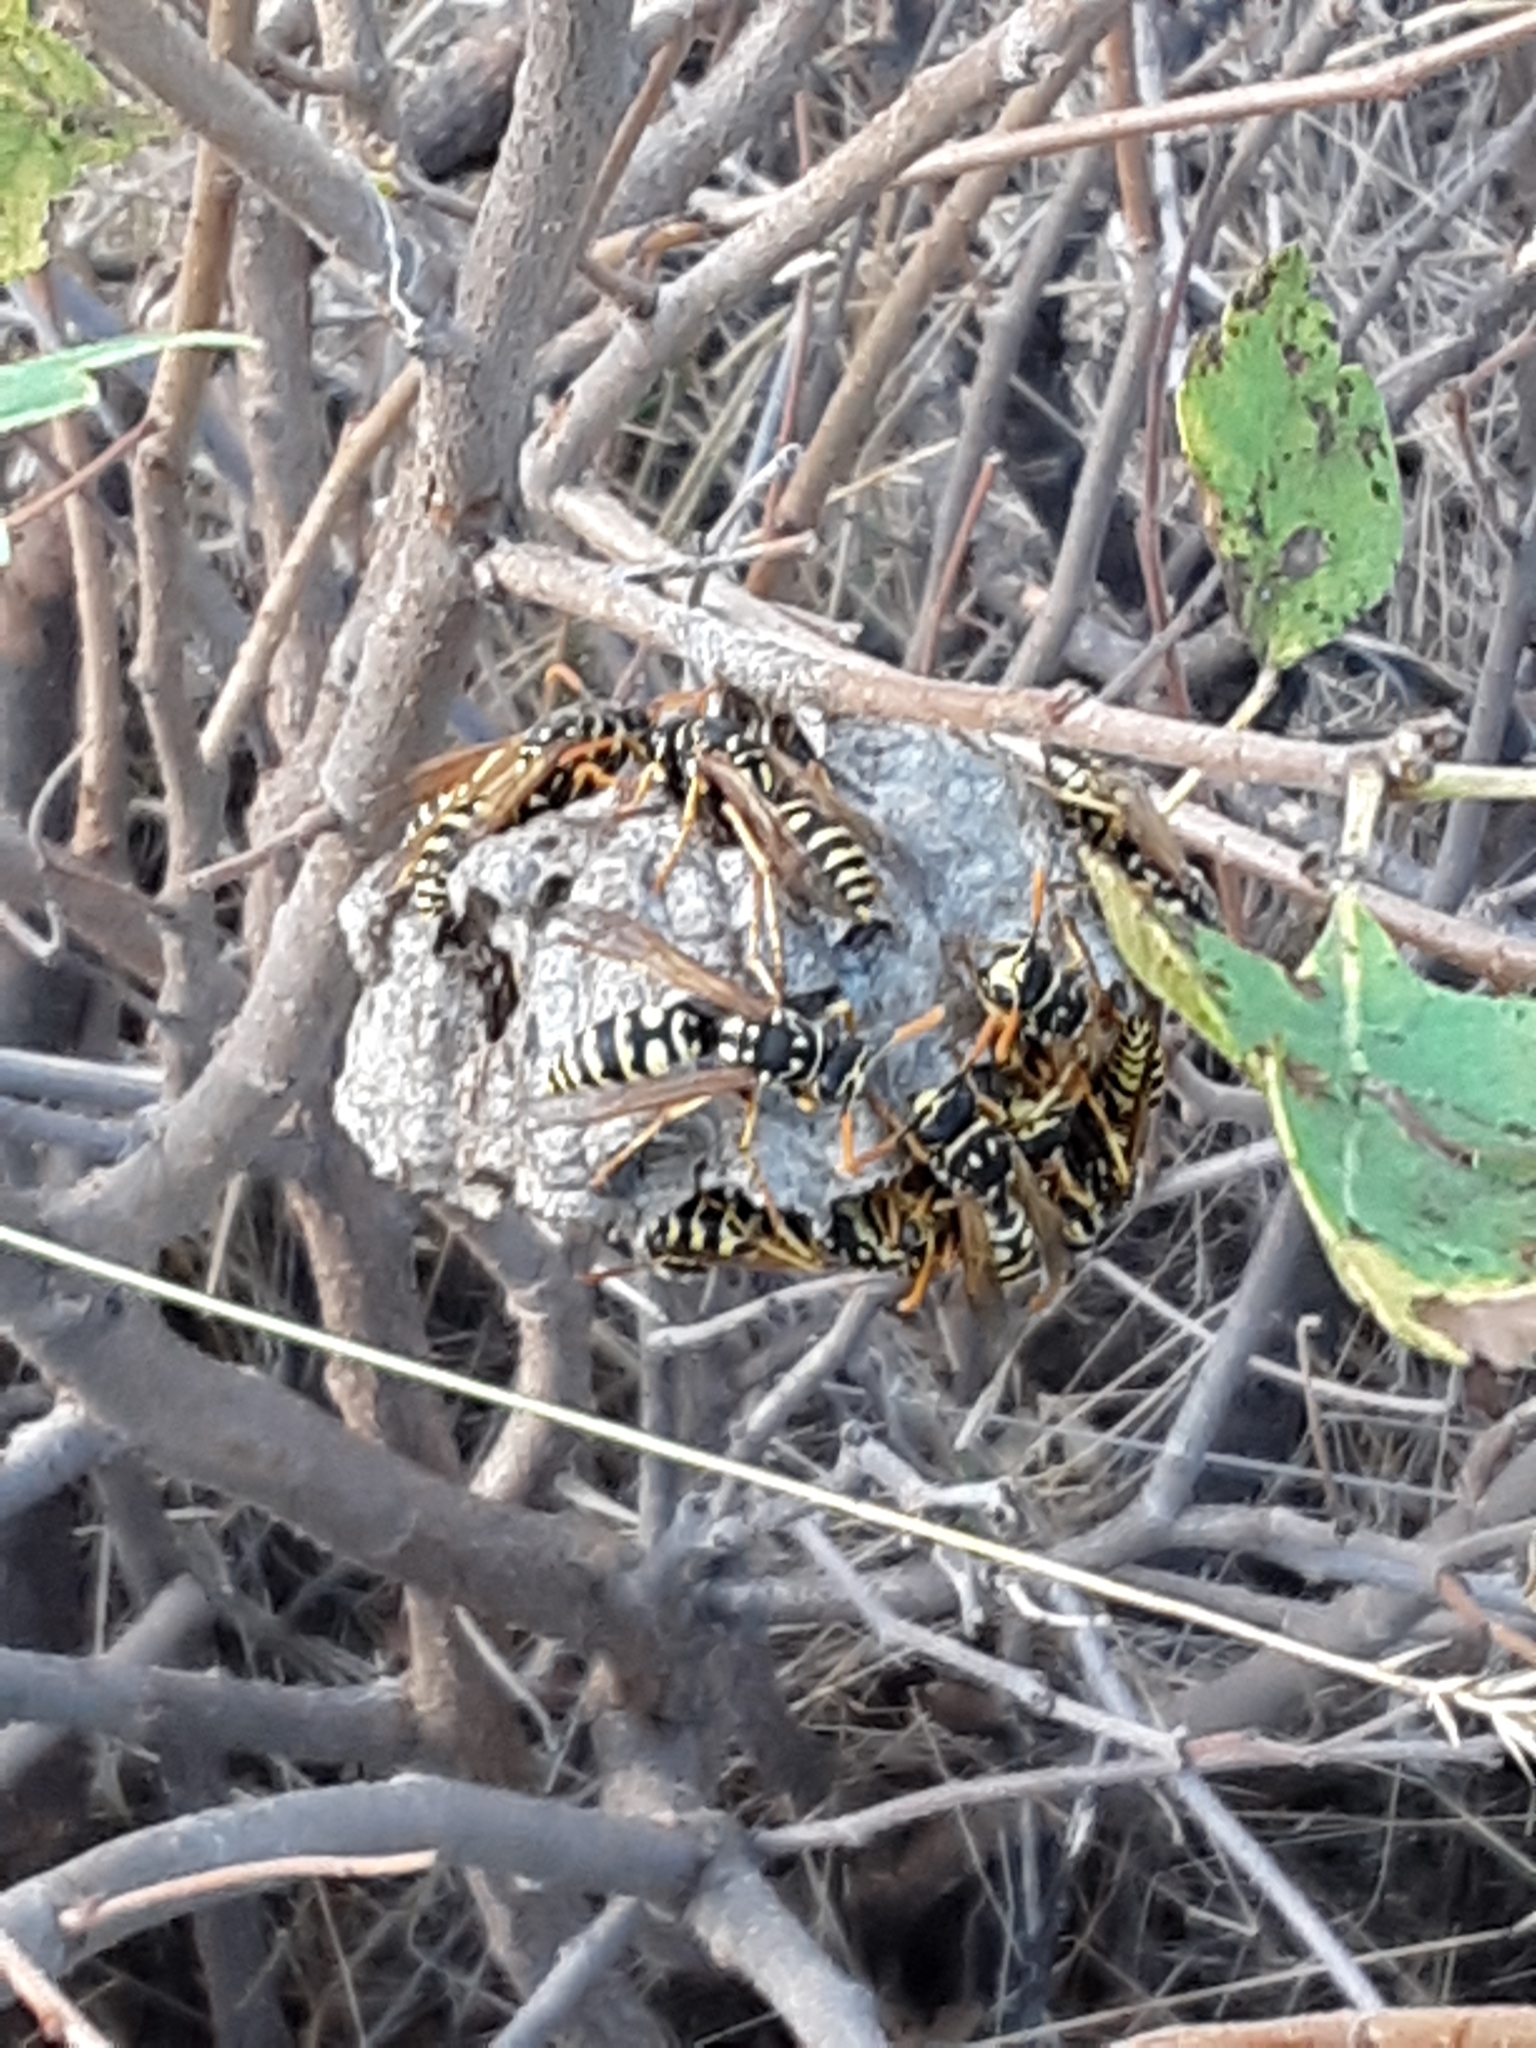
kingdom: Animalia
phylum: Arthropoda
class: Insecta
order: Hymenoptera
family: Eumenidae
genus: Polistes
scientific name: Polistes dominula
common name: Paper wasp
